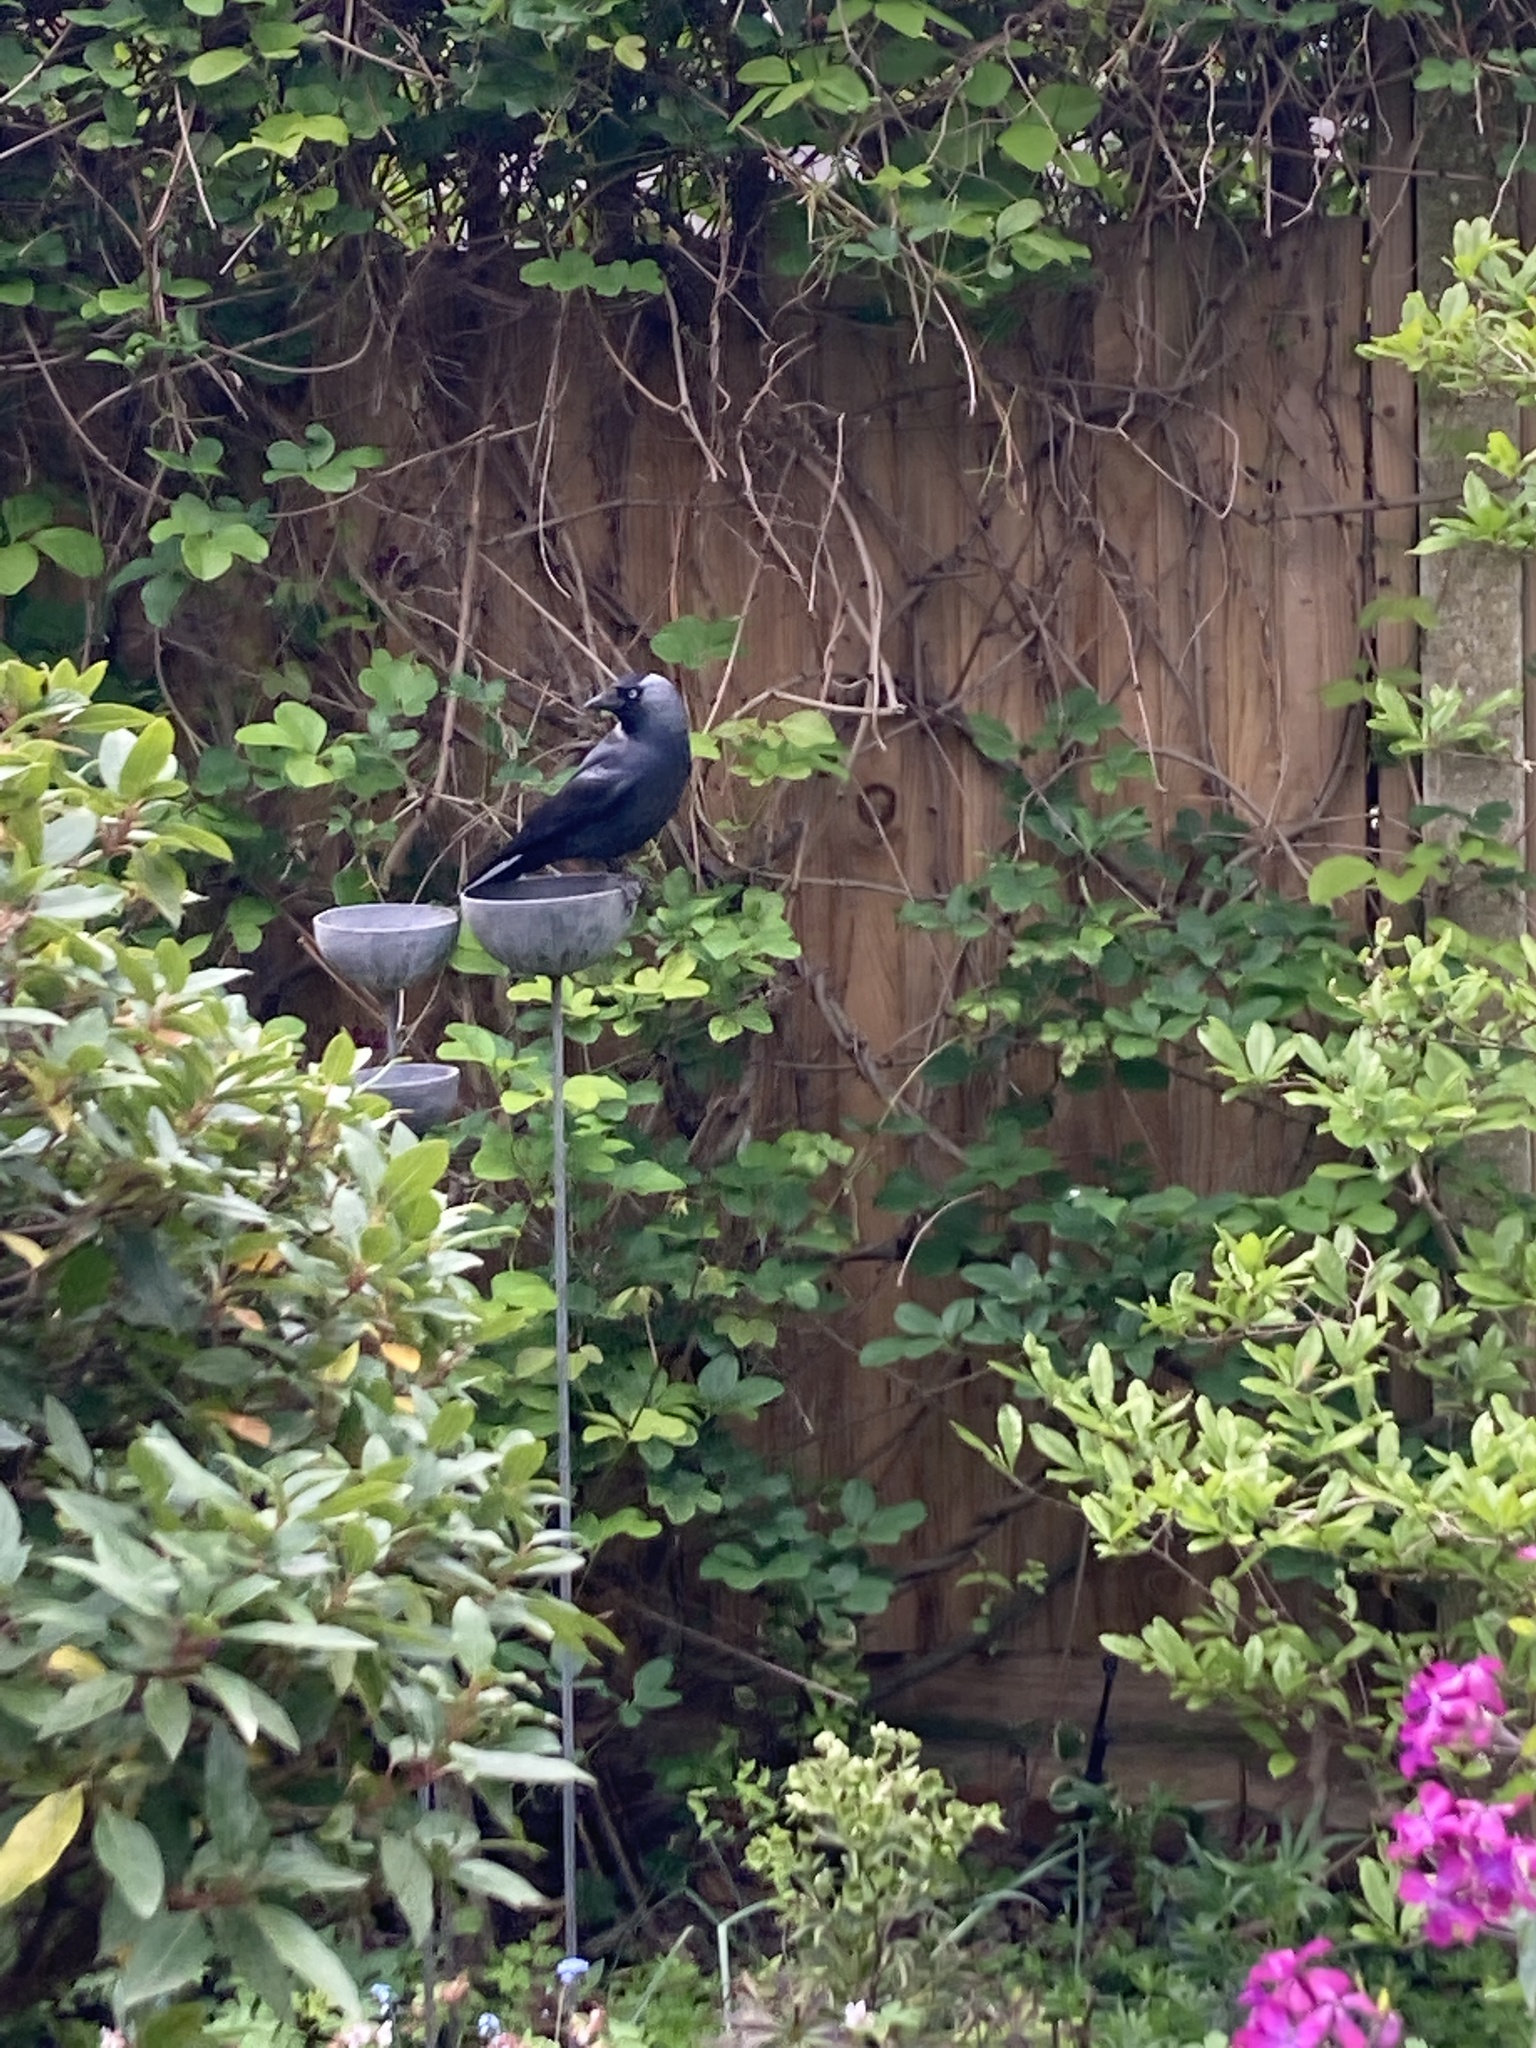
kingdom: Animalia
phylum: Chordata
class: Aves
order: Passeriformes
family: Corvidae
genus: Coloeus
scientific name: Coloeus monedula
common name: Western jackdaw
